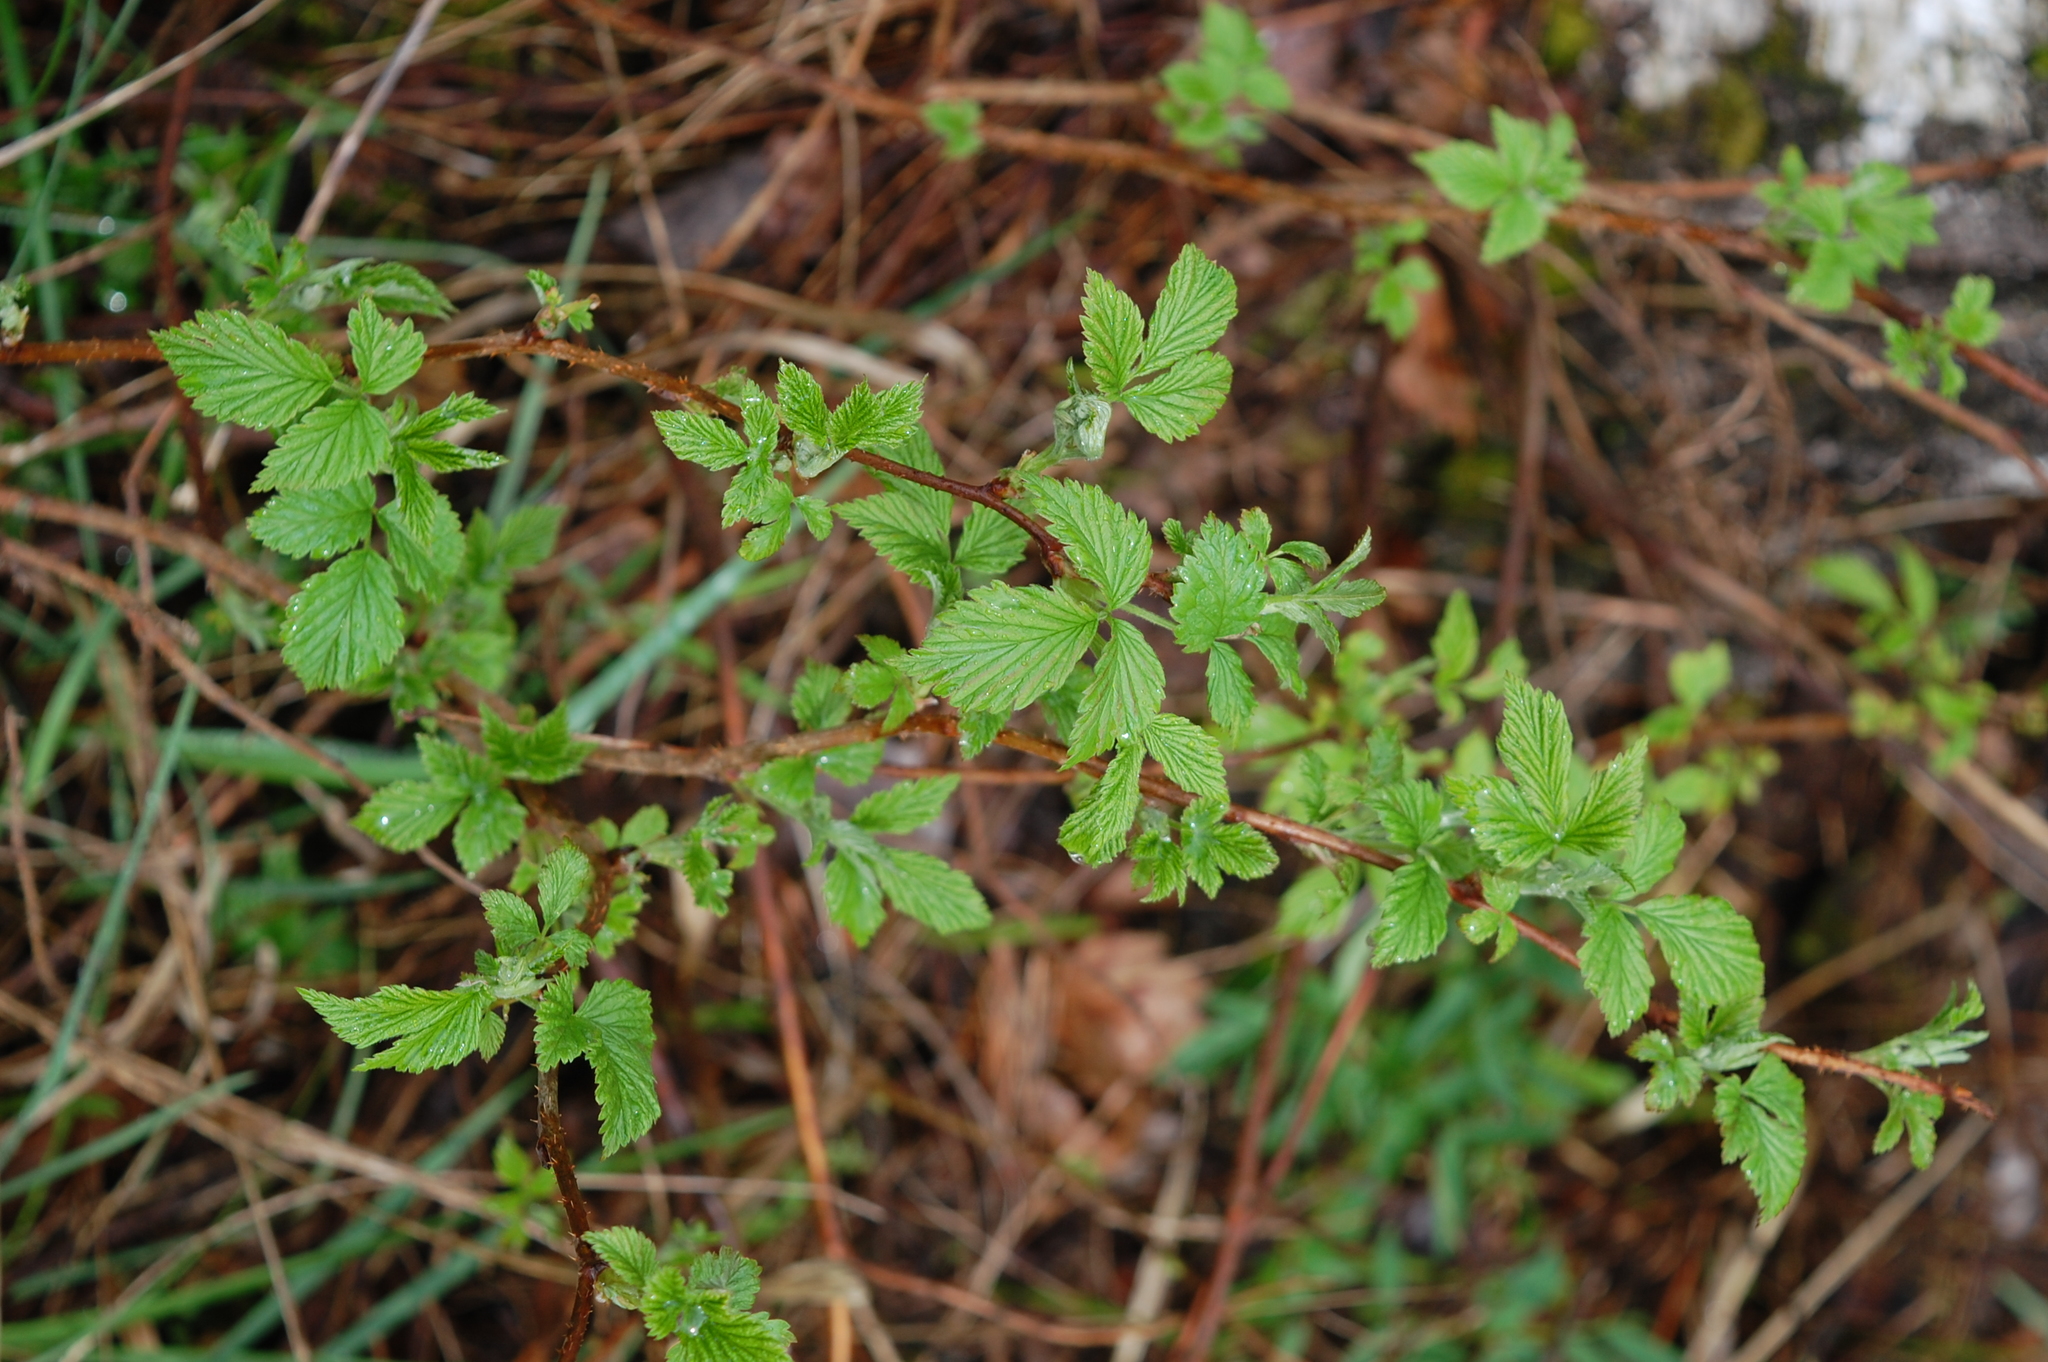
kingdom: Plantae
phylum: Tracheophyta
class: Magnoliopsida
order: Rosales
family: Rosaceae
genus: Rubus
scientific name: Rubus idaeus
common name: Raspberry
